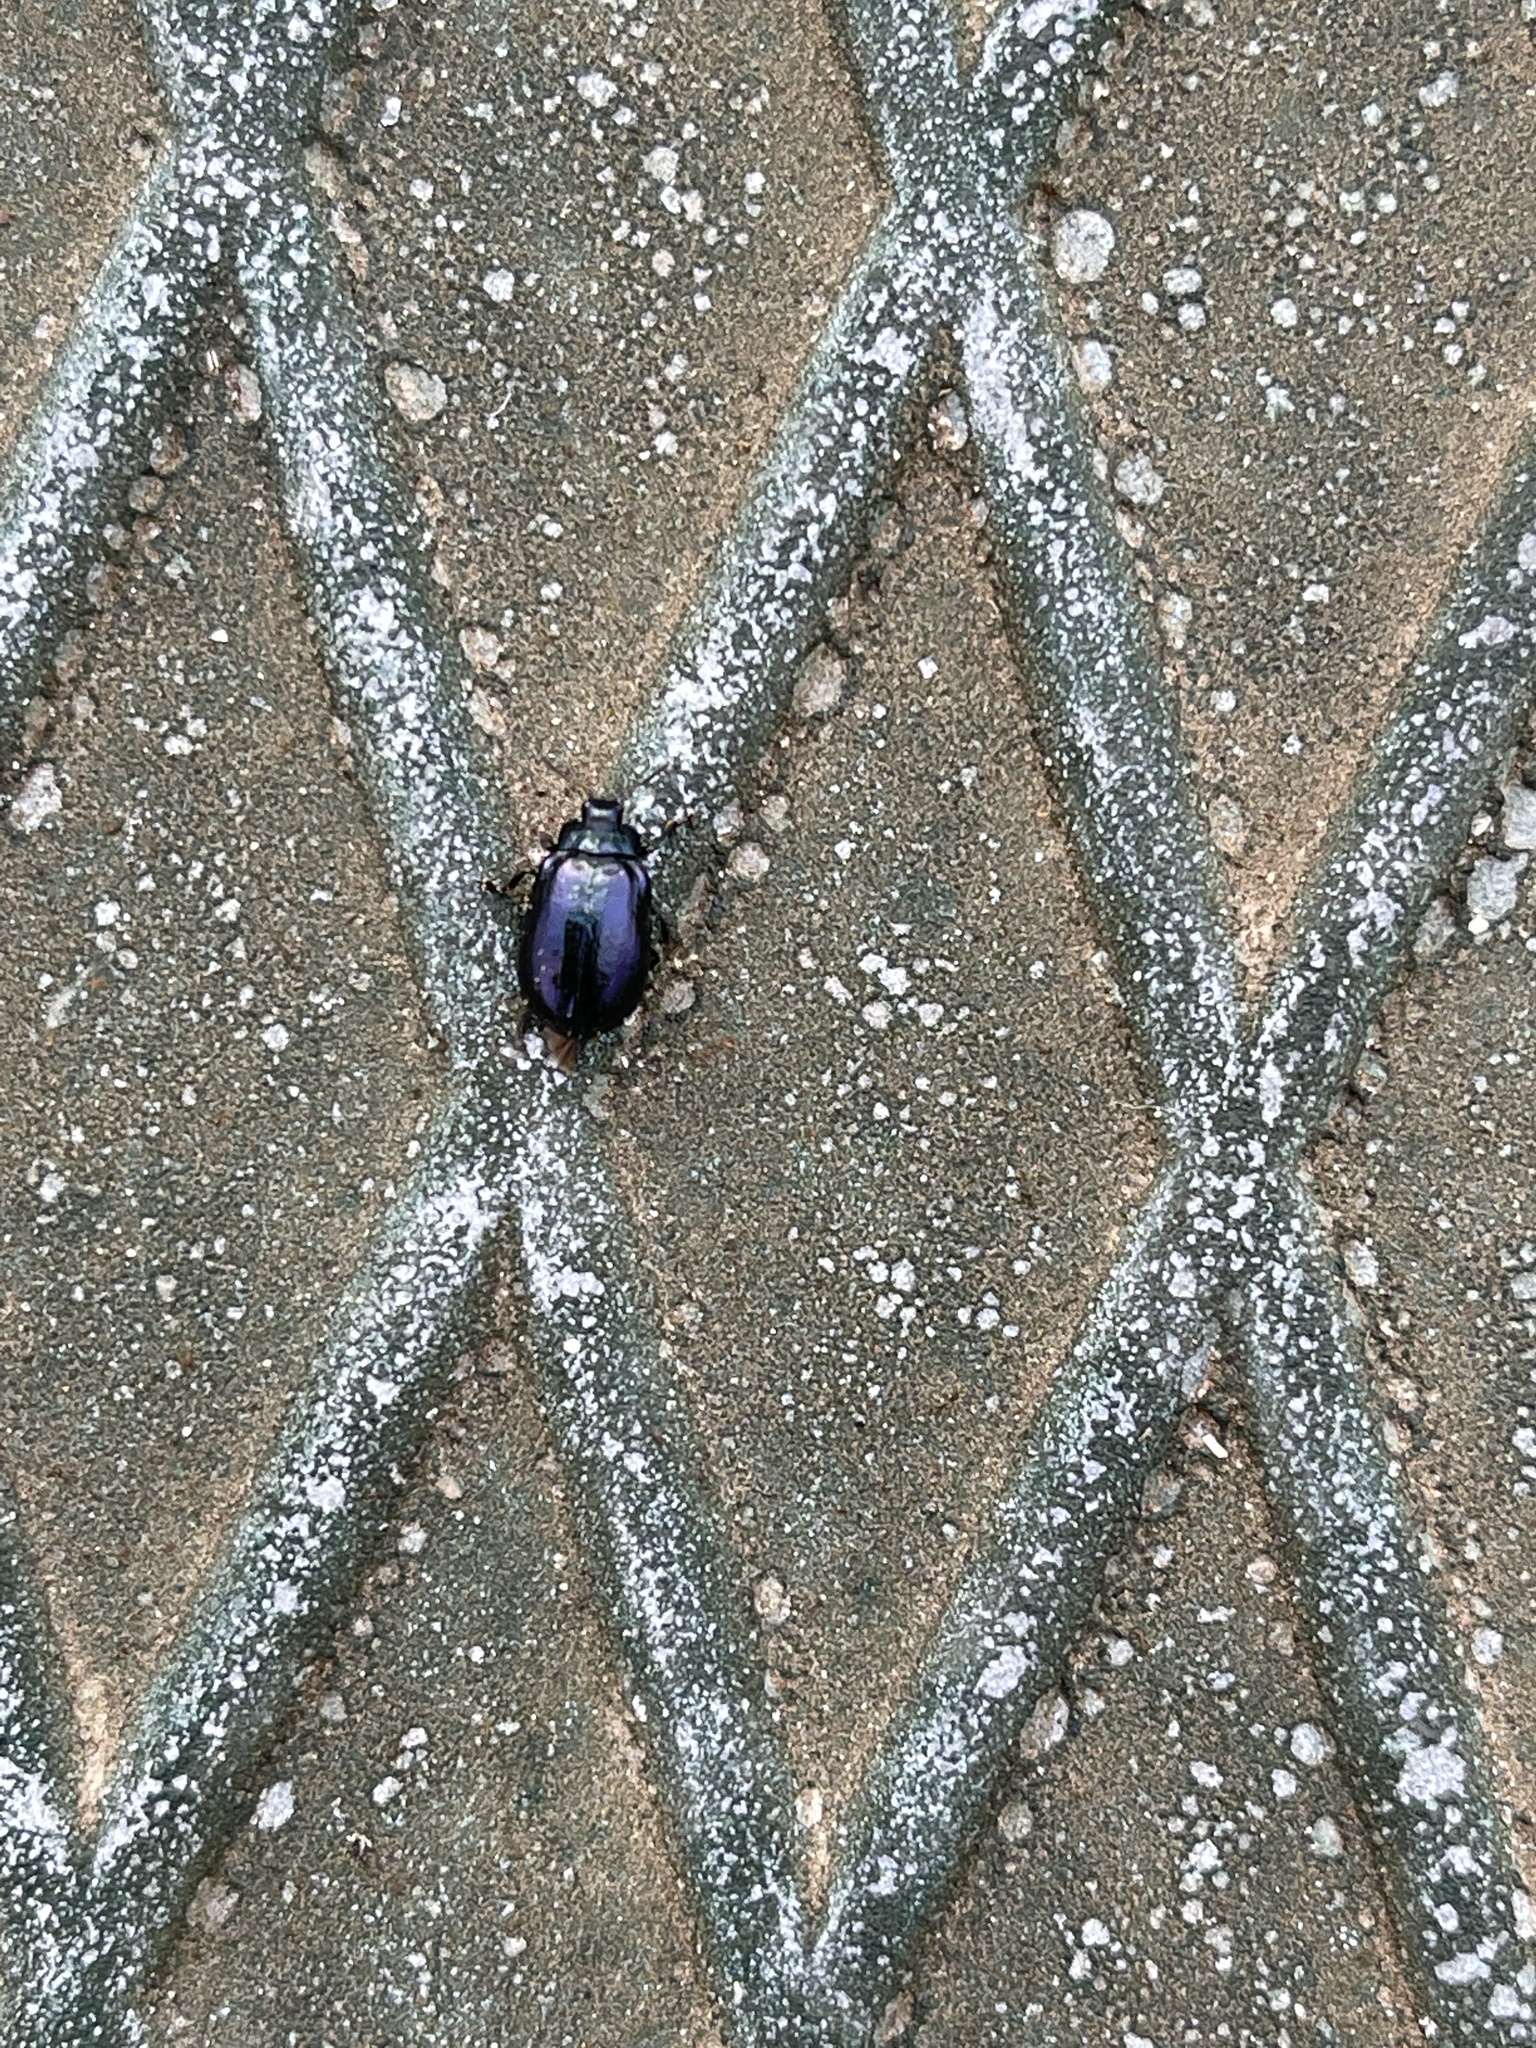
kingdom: Animalia
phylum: Arthropoda
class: Insecta
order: Coleoptera
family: Chrysomelidae
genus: Plagiosterna
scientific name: Plagiosterna aenea
